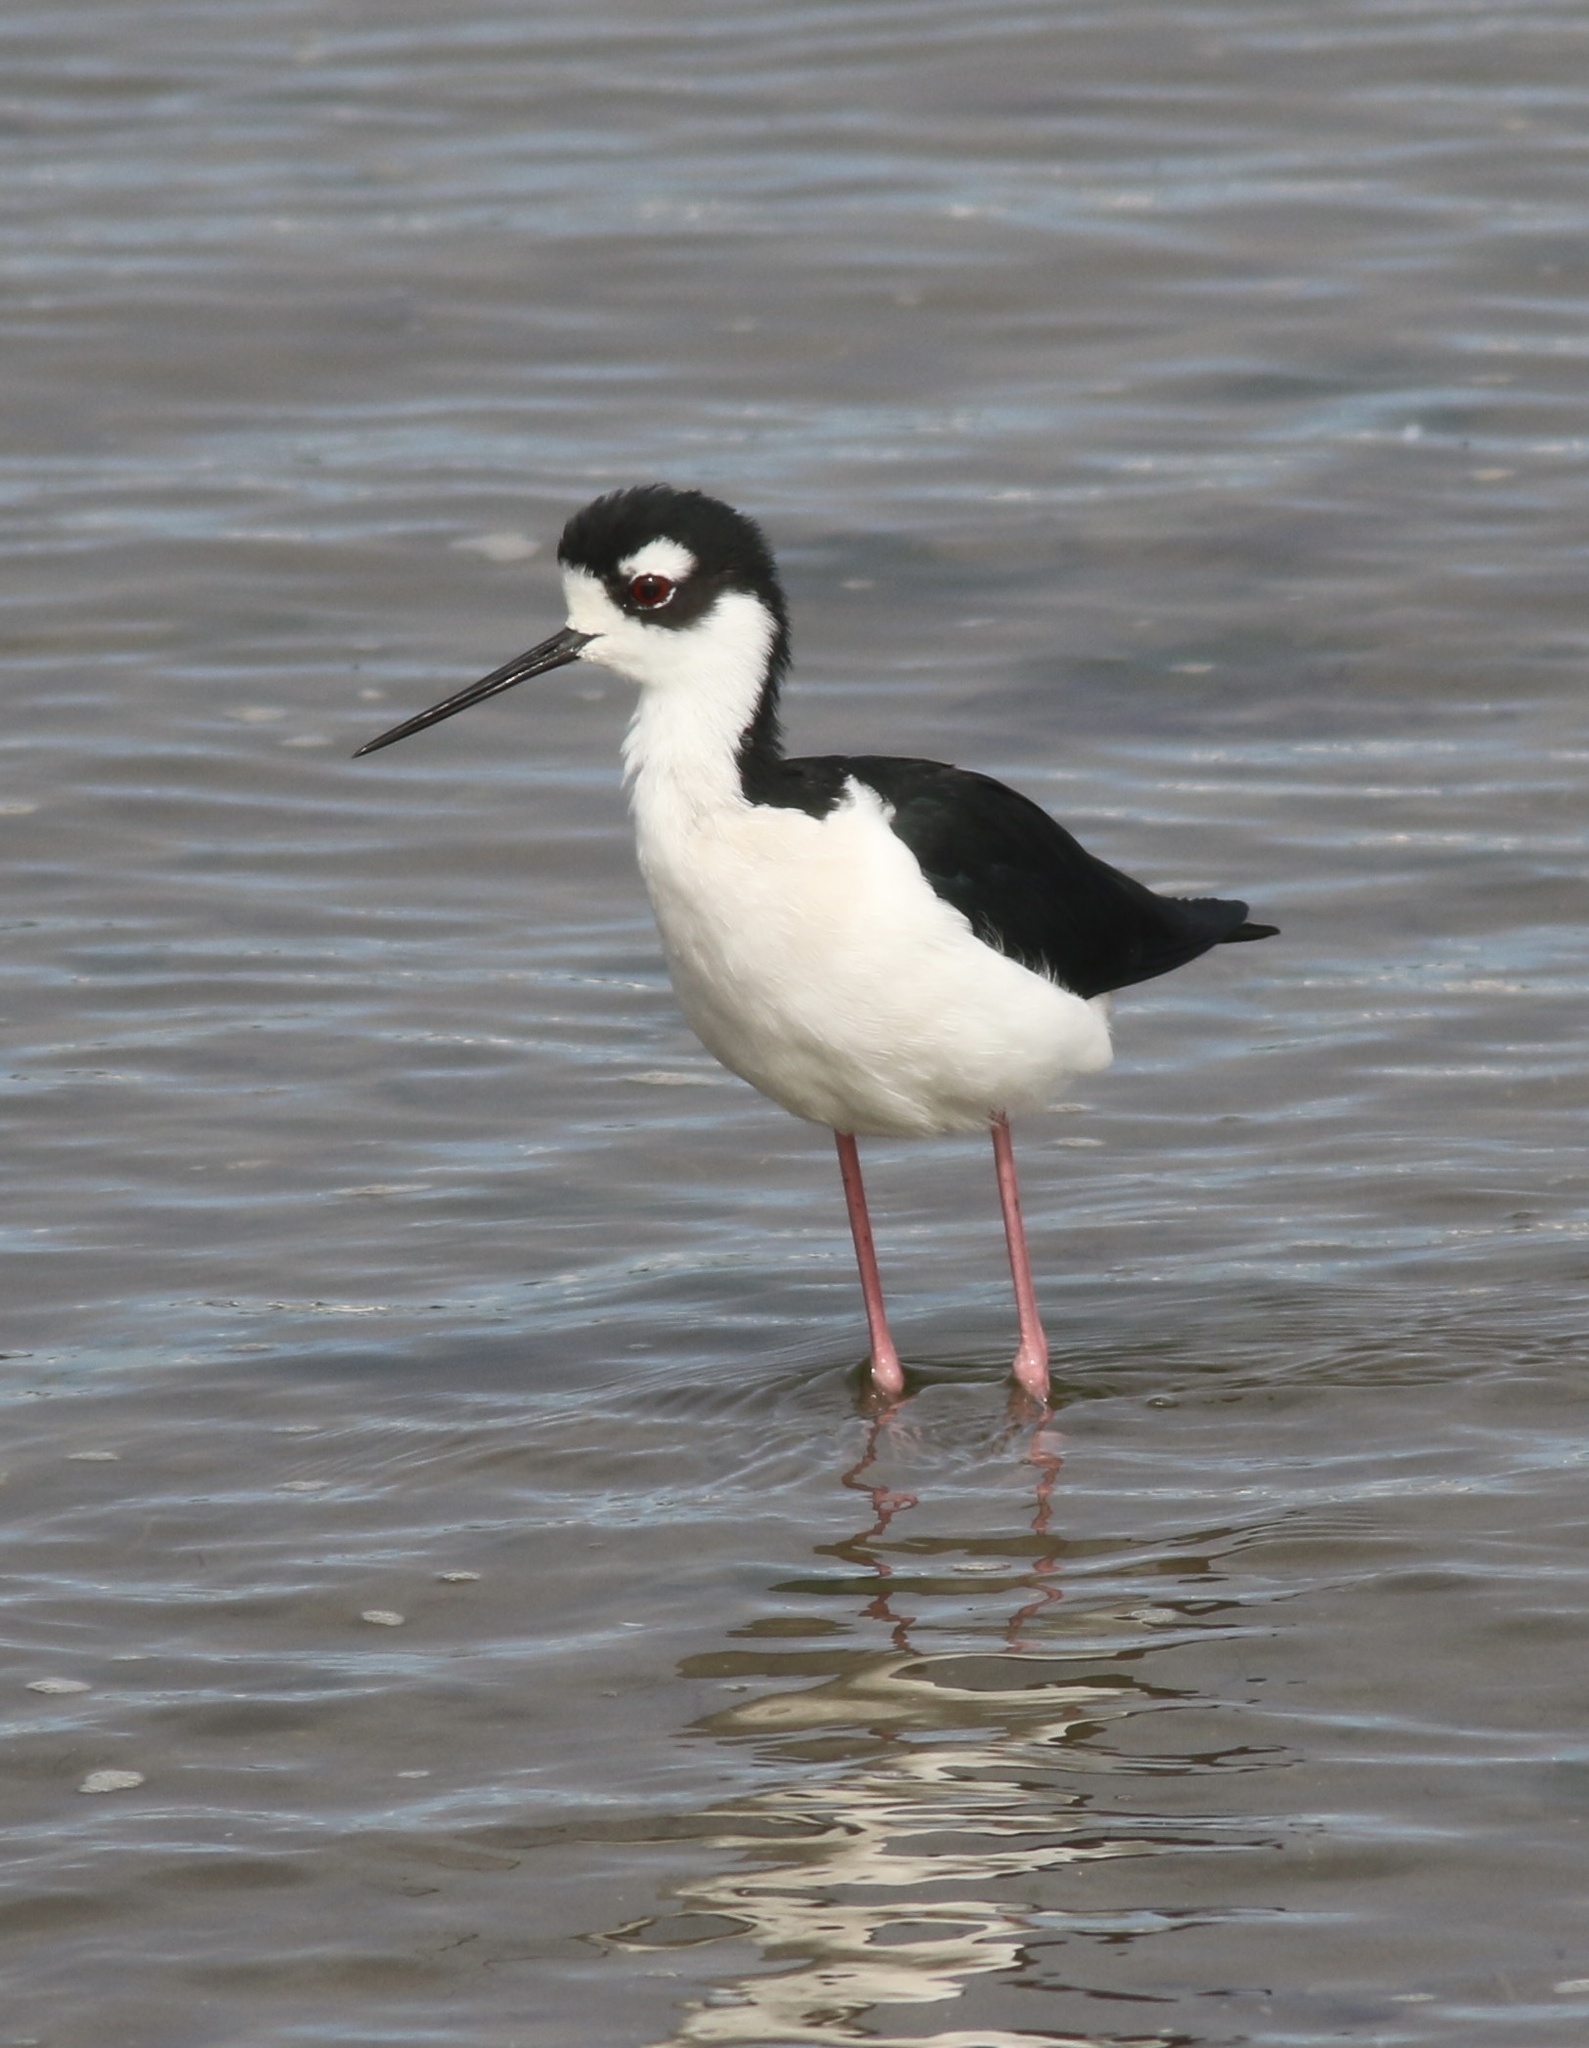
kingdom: Animalia
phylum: Chordata
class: Aves
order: Charadriiformes
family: Recurvirostridae
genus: Himantopus
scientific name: Himantopus mexicanus
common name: Black-necked stilt
